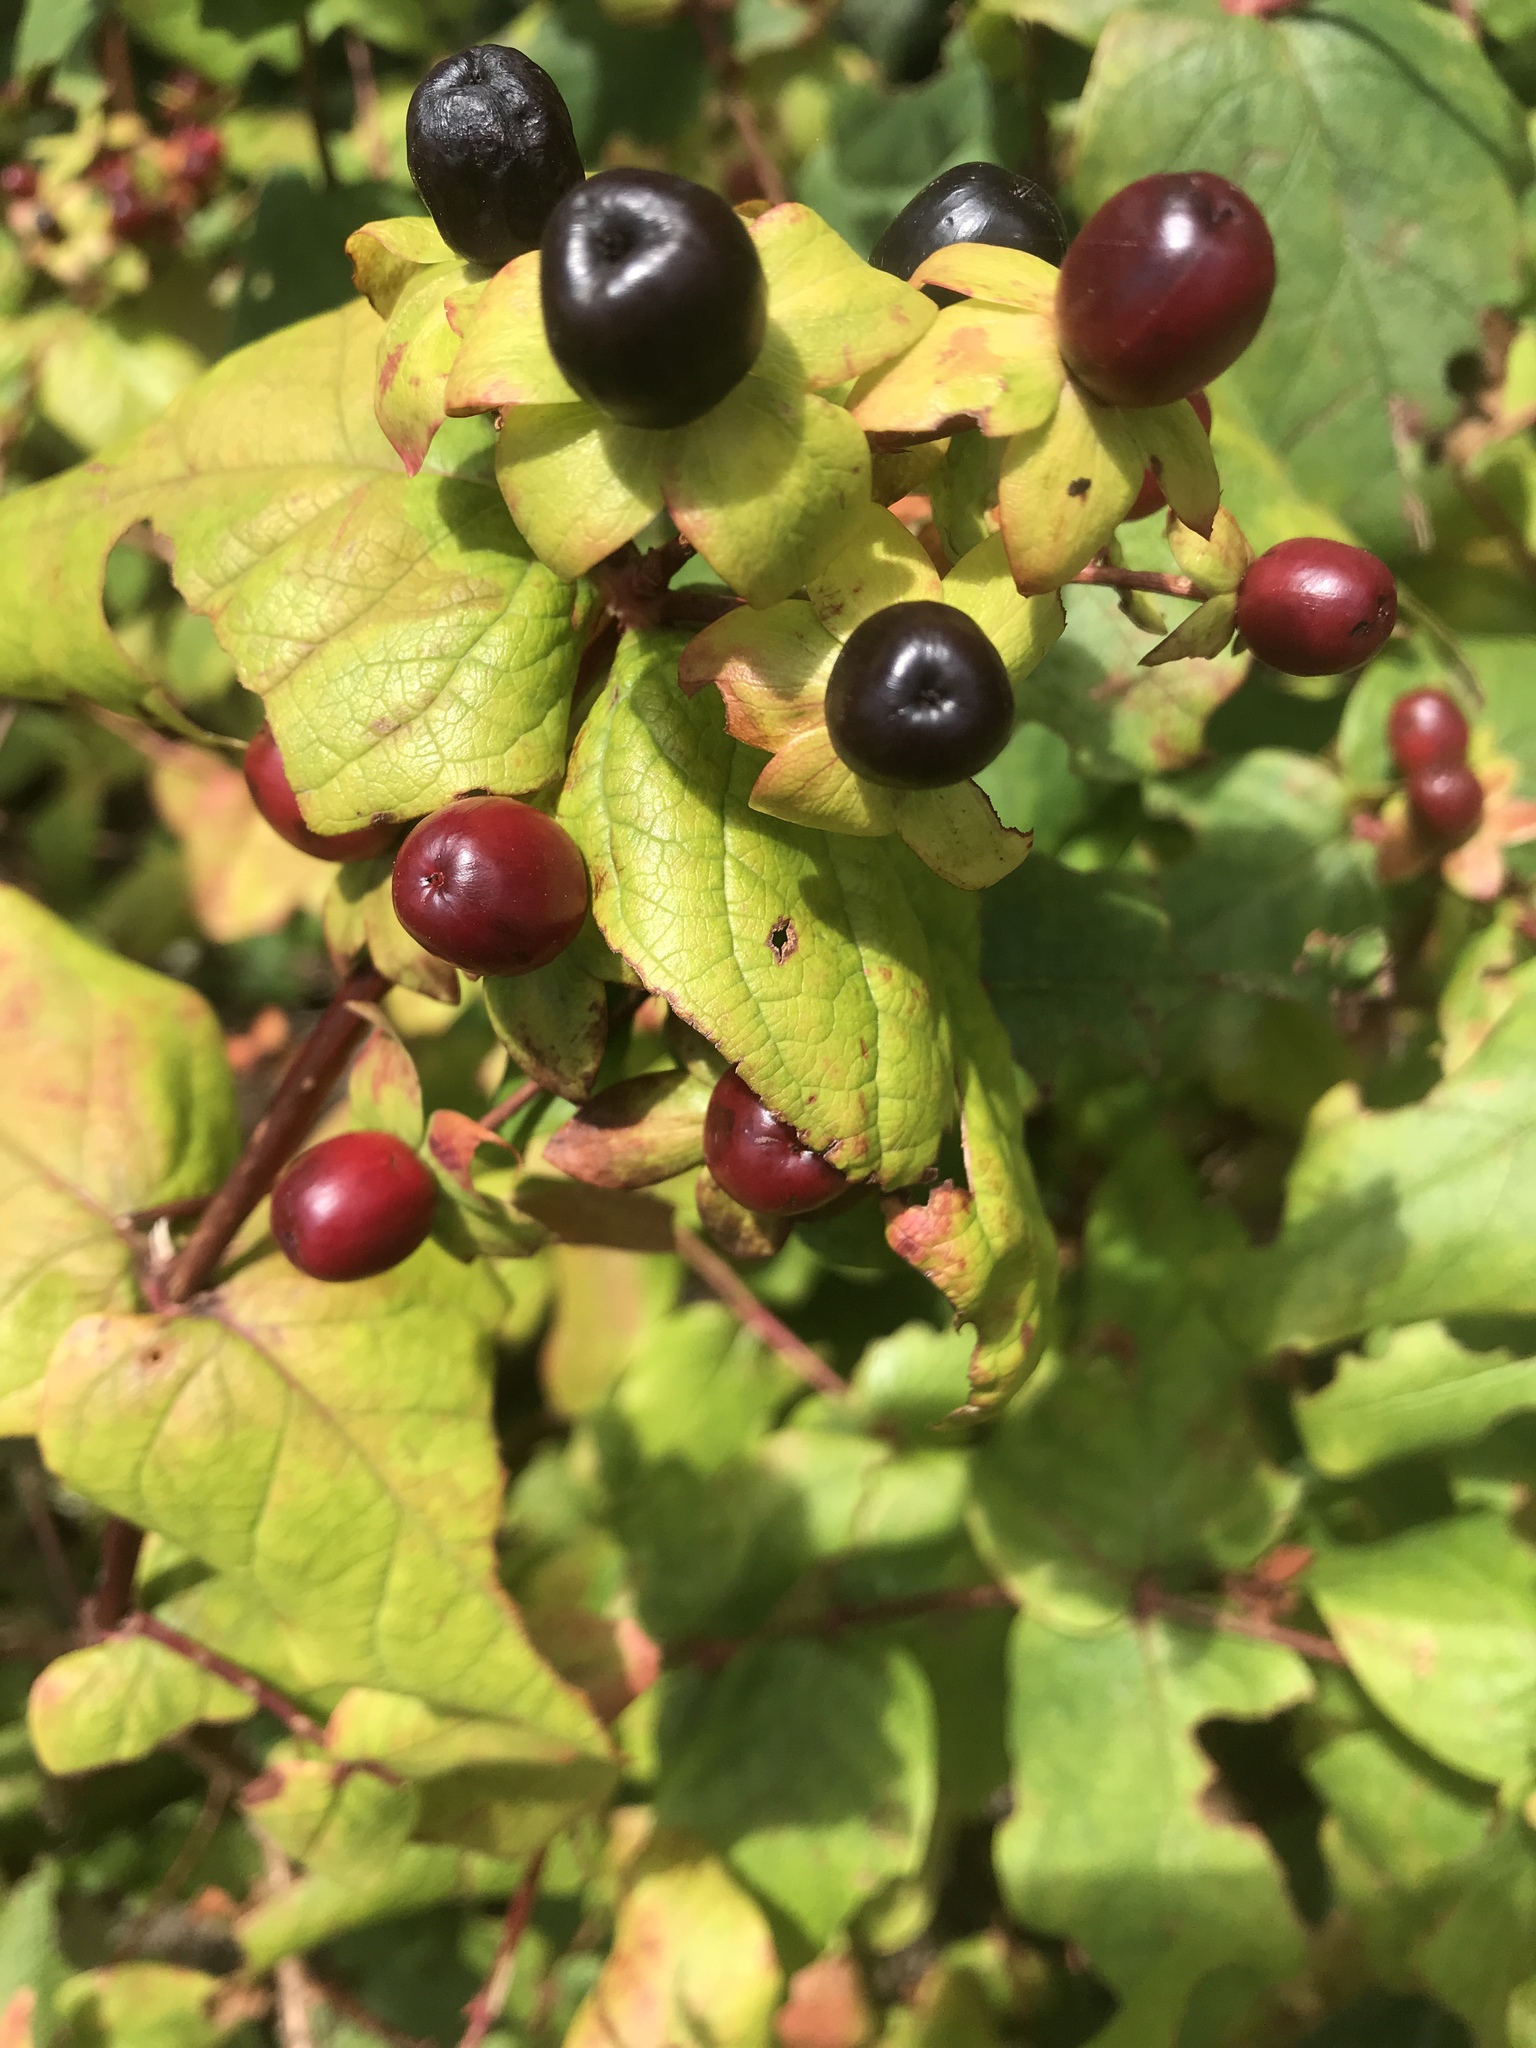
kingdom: Plantae
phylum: Tracheophyta
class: Magnoliopsida
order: Malpighiales
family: Hypericaceae
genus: Hypericum
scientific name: Hypericum androsaemum
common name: Sweet-amber
